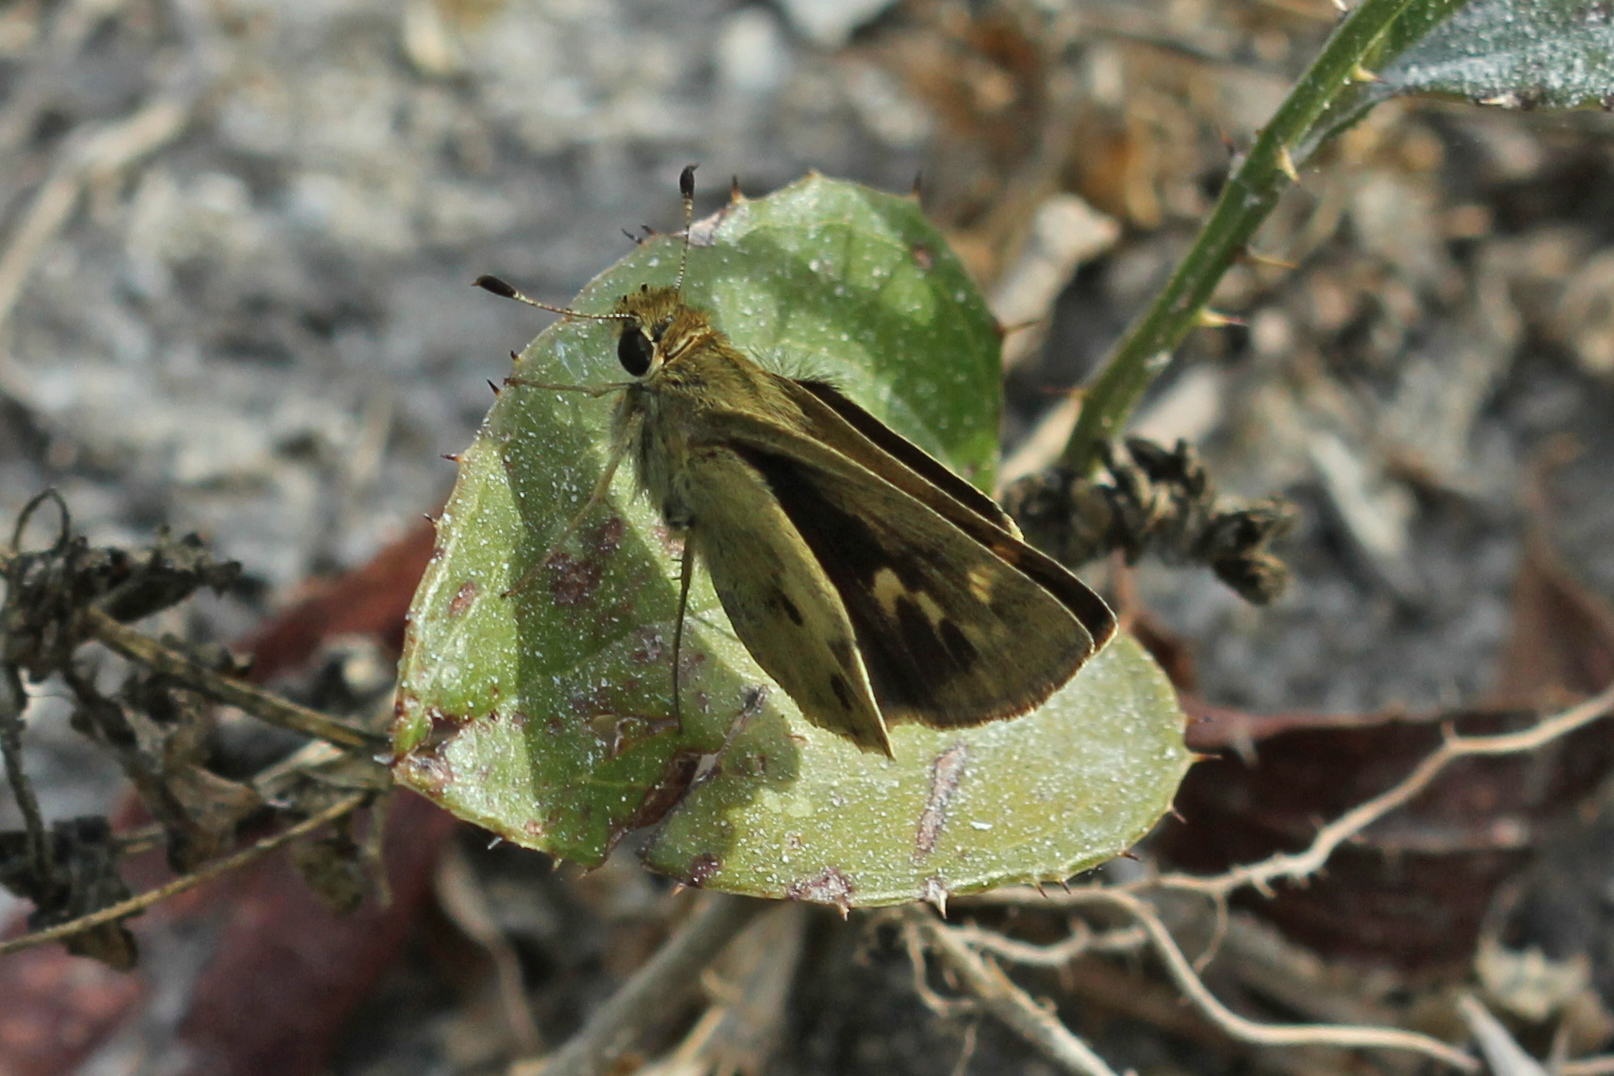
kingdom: Animalia
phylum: Arthropoda
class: Insecta
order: Lepidoptera
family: Hesperiidae
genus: Polites
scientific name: Polites vibex
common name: Whirlabout
